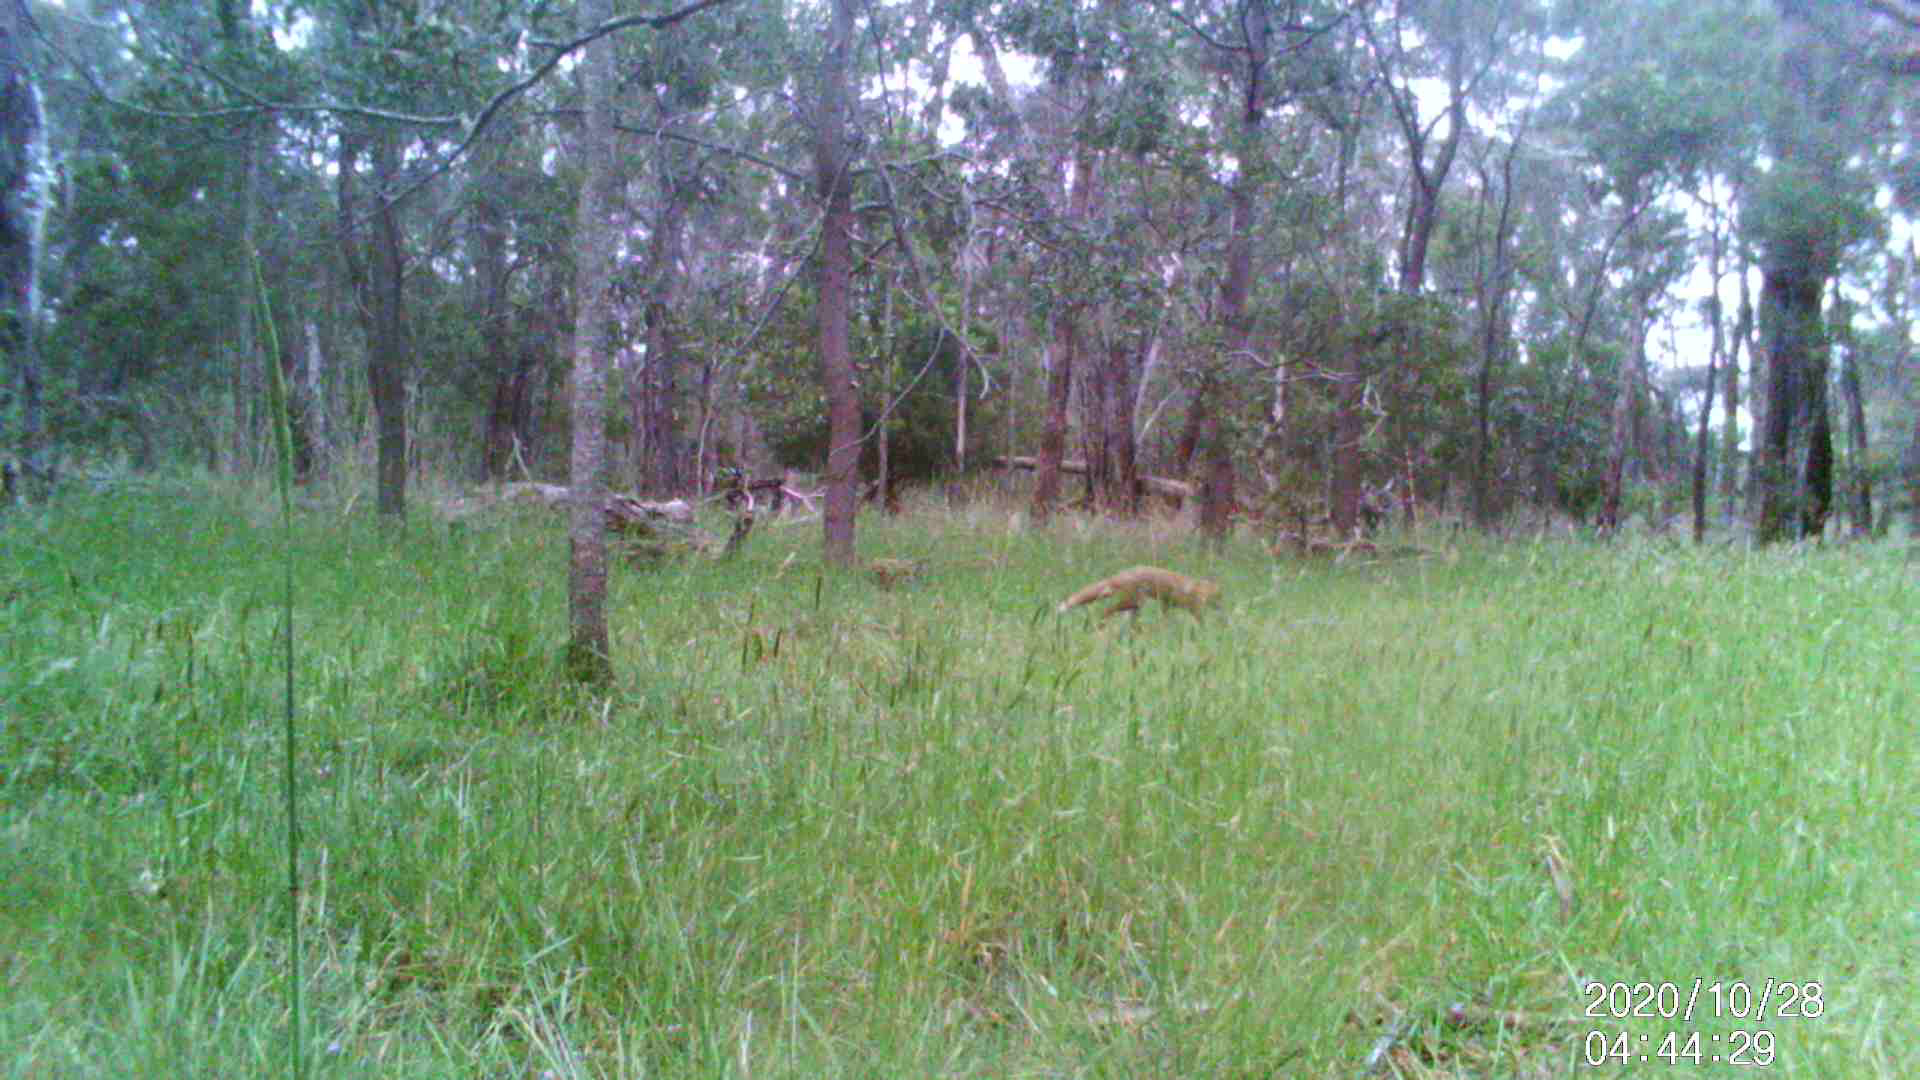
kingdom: Animalia
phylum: Chordata
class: Mammalia
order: Carnivora
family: Canidae
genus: Vulpes
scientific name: Vulpes vulpes
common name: Red fox
